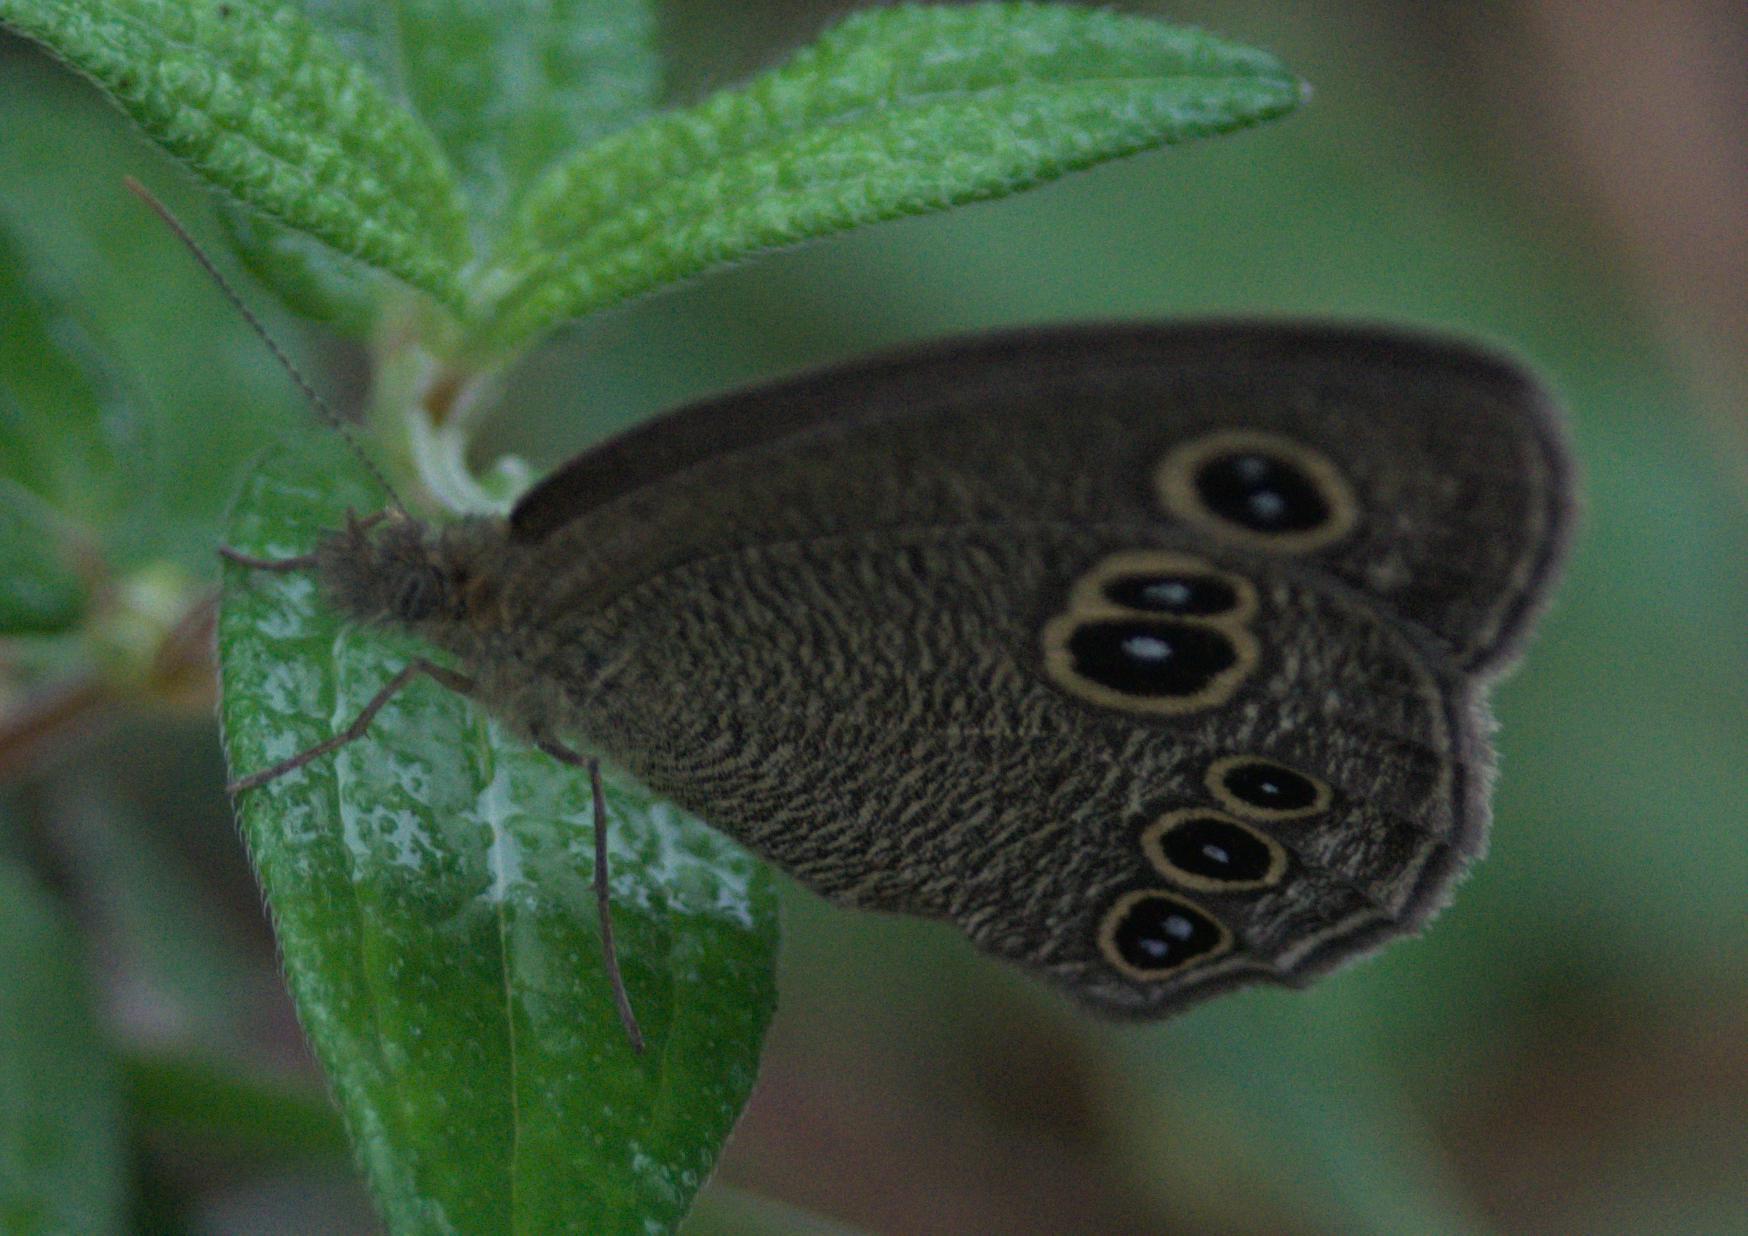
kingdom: Animalia
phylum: Arthropoda
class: Insecta
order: Lepidoptera
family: Nymphalidae
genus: Ypthima
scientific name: Ypthima nikaea
